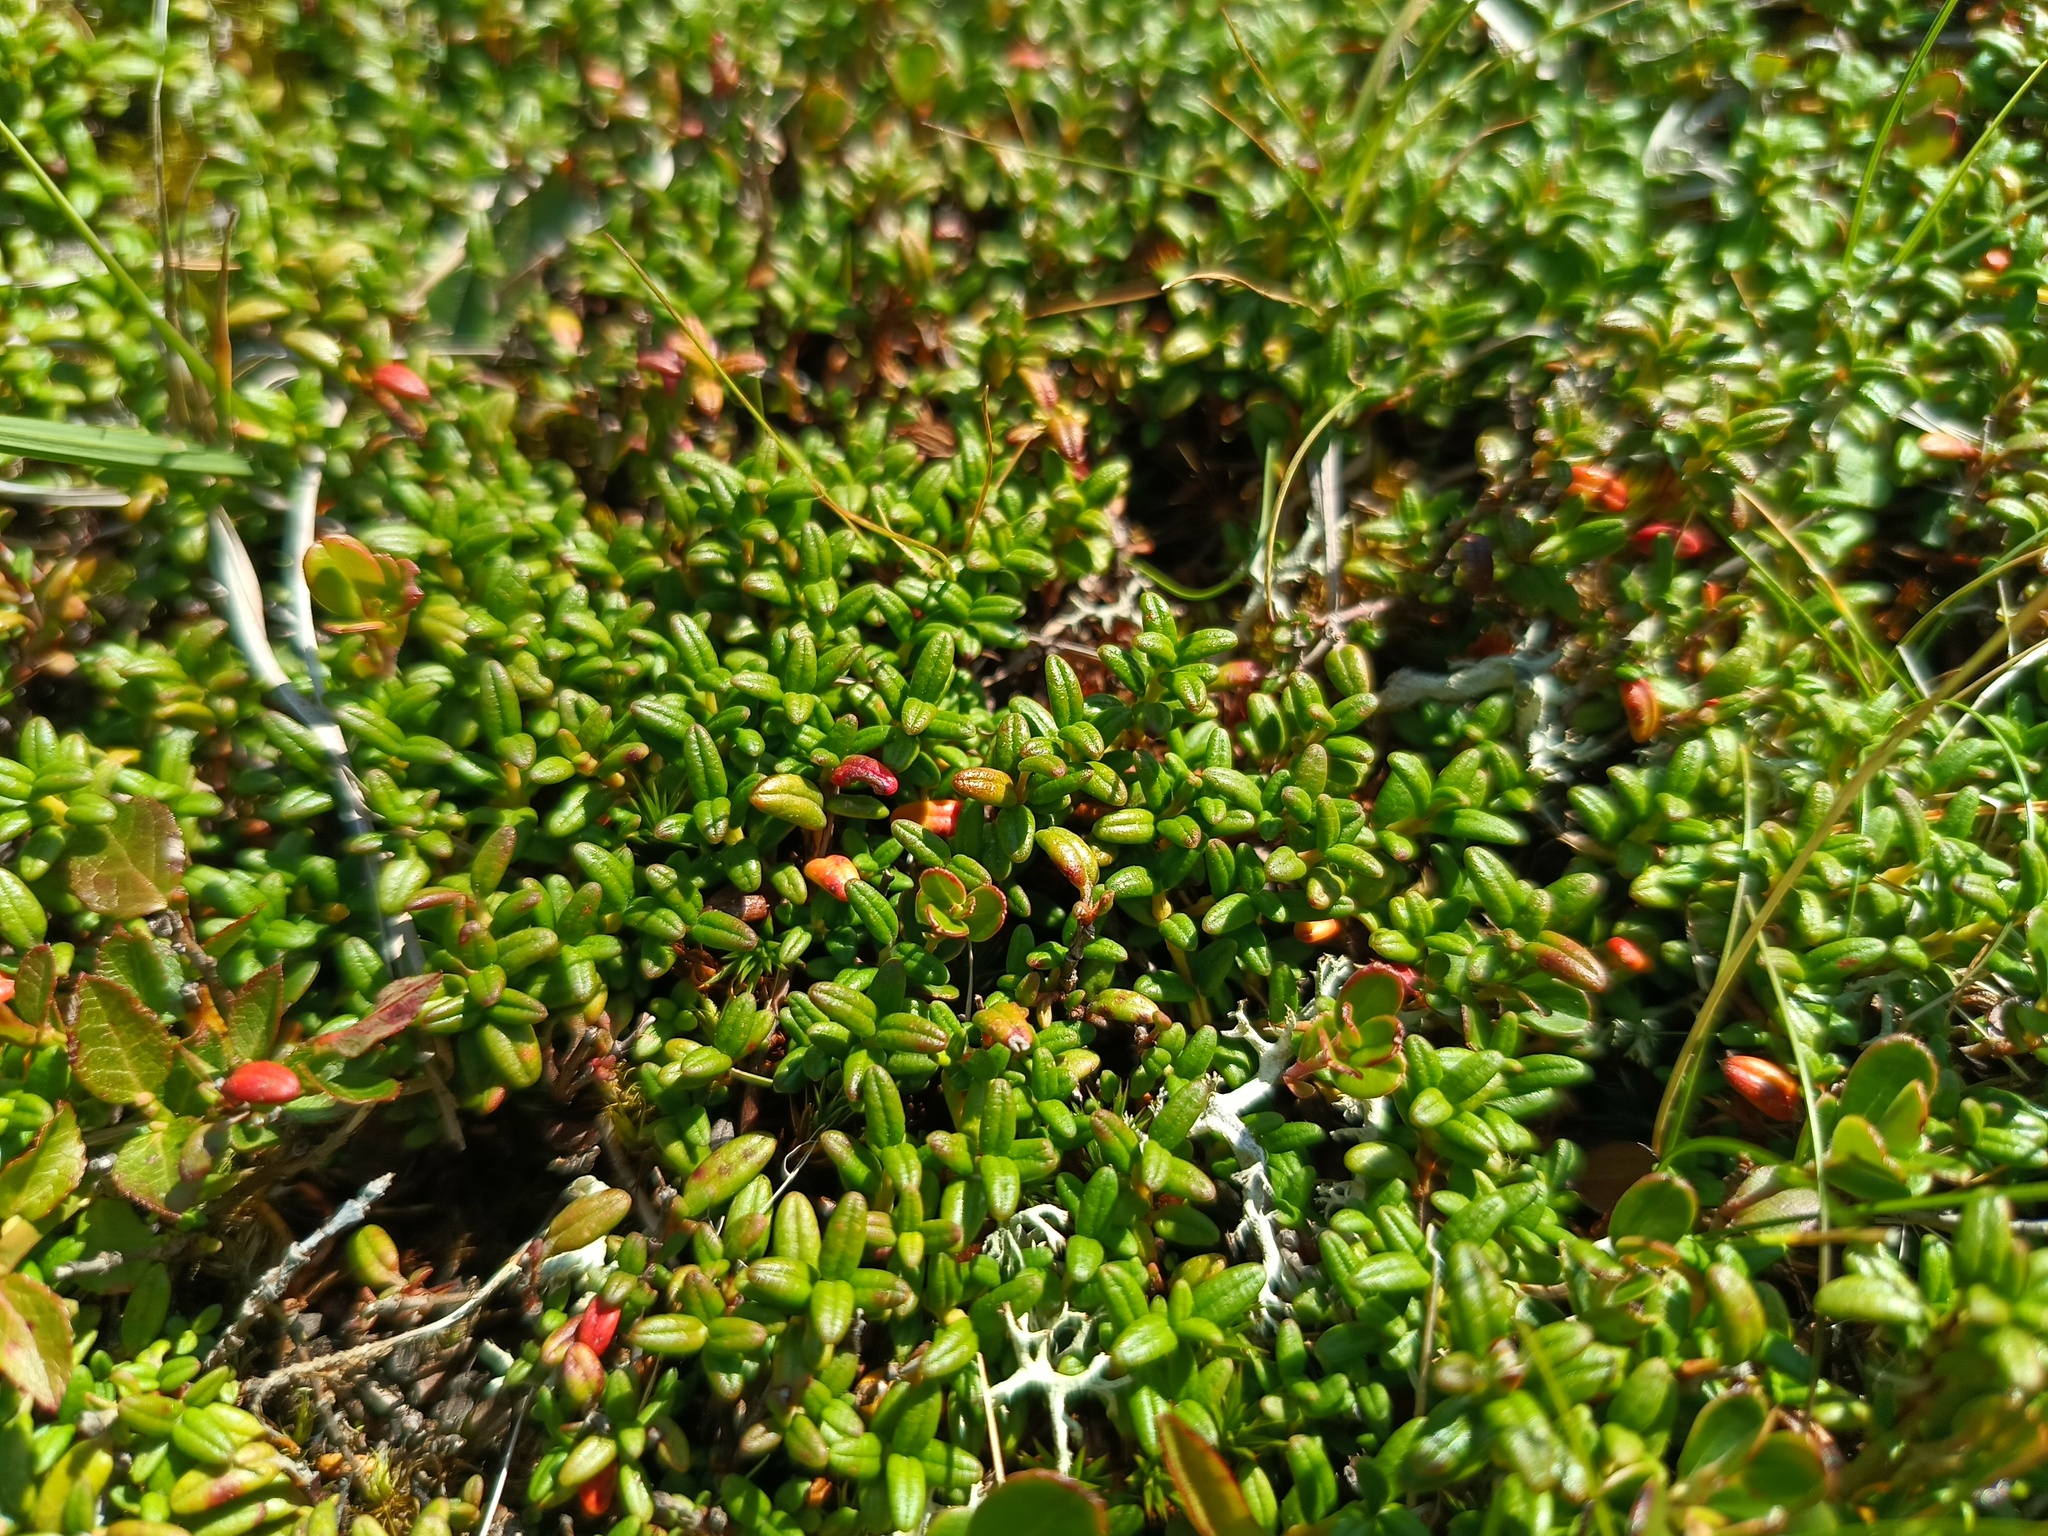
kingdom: Plantae
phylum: Tracheophyta
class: Magnoliopsida
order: Ericales
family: Ericaceae
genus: Kalmia
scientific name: Kalmia procumbens
